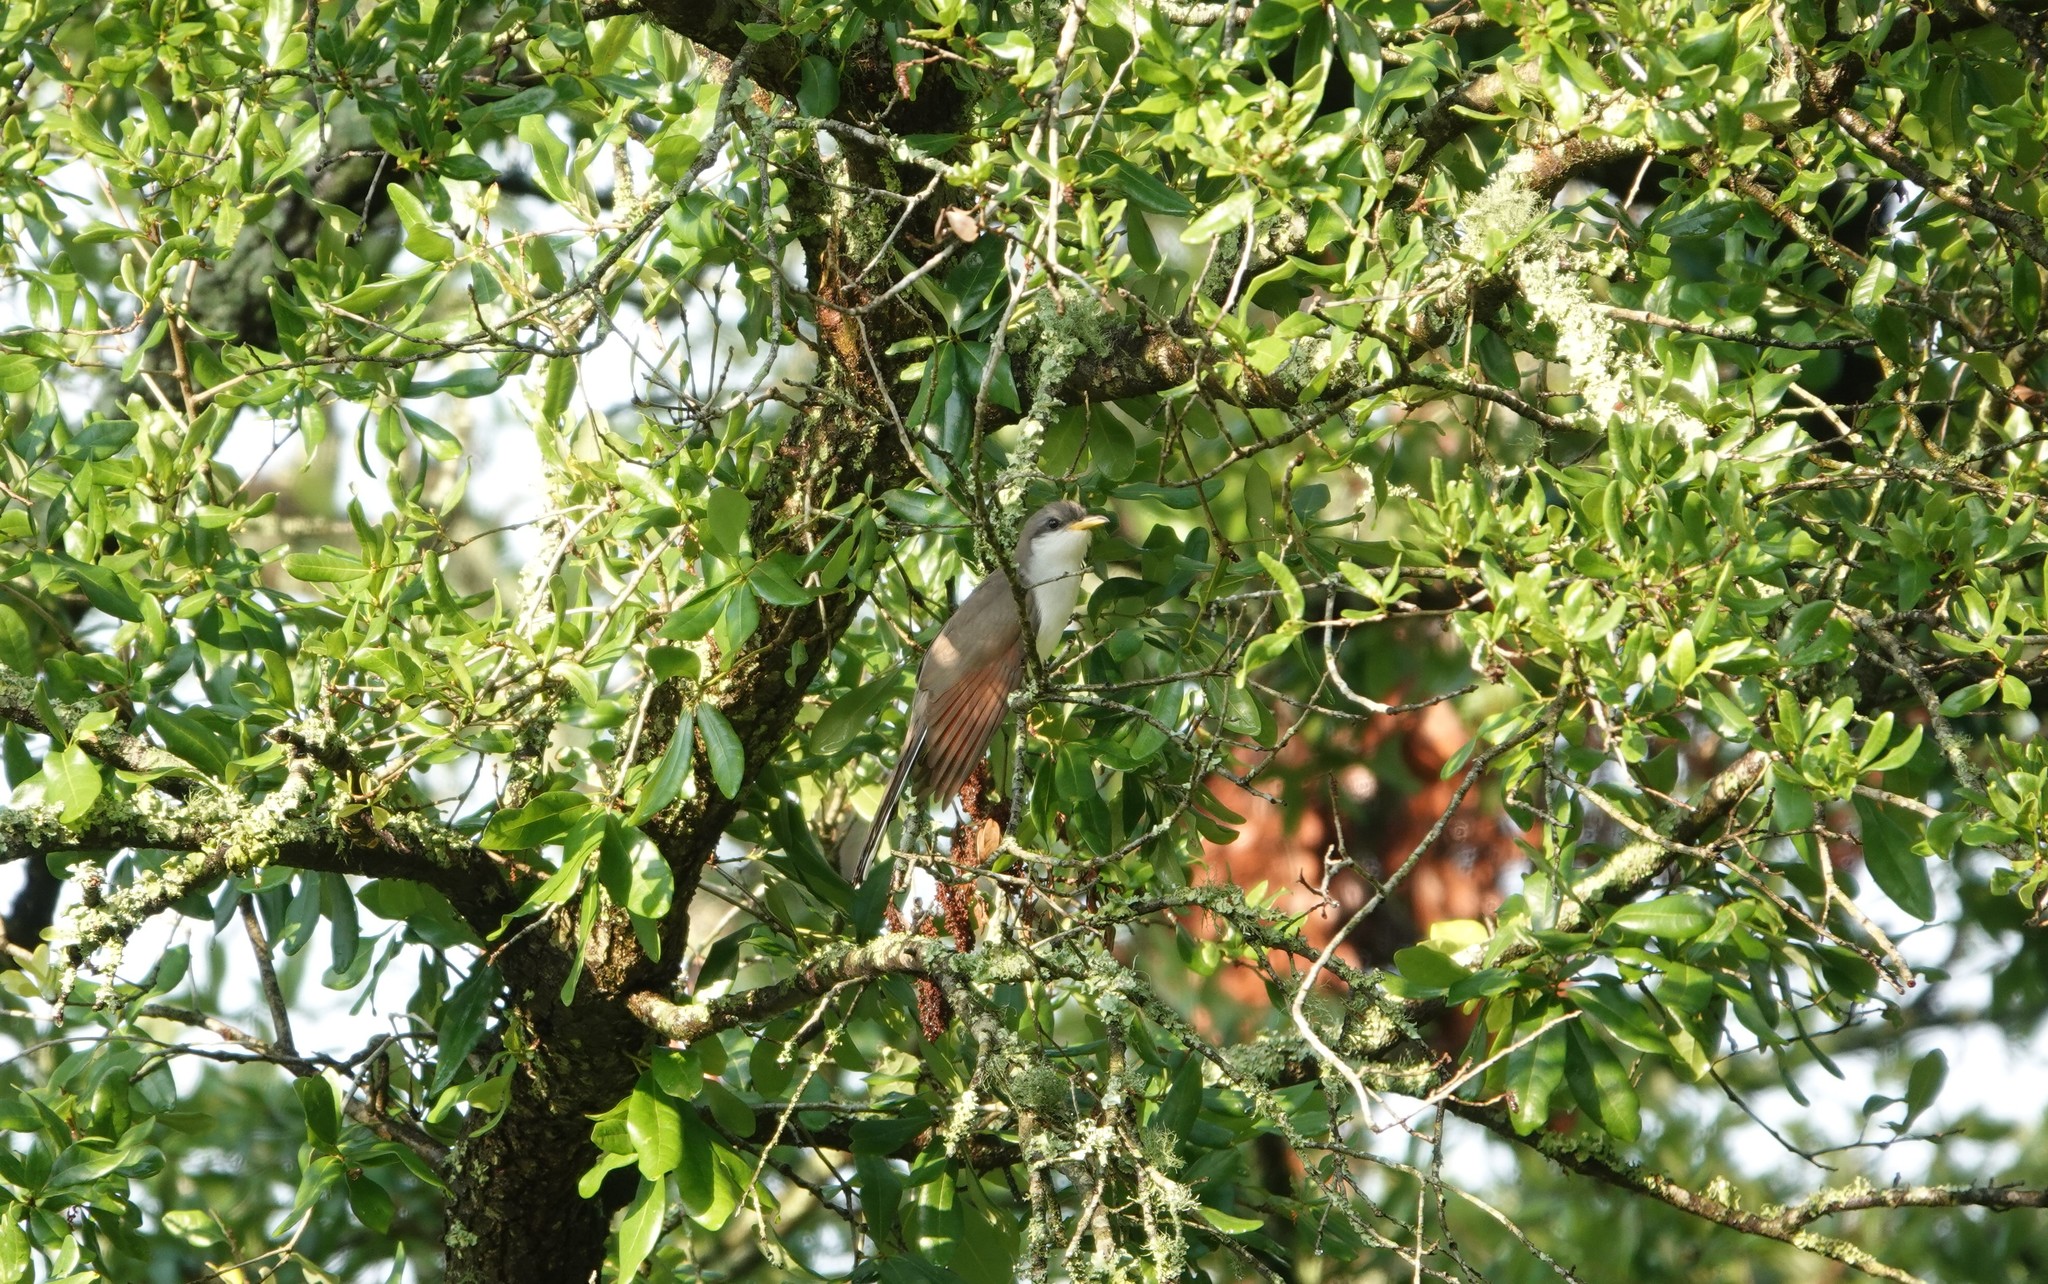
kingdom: Animalia
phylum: Chordata
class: Aves
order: Cuculiformes
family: Cuculidae
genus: Coccyzus
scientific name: Coccyzus americanus
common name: Yellow-billed cuckoo
